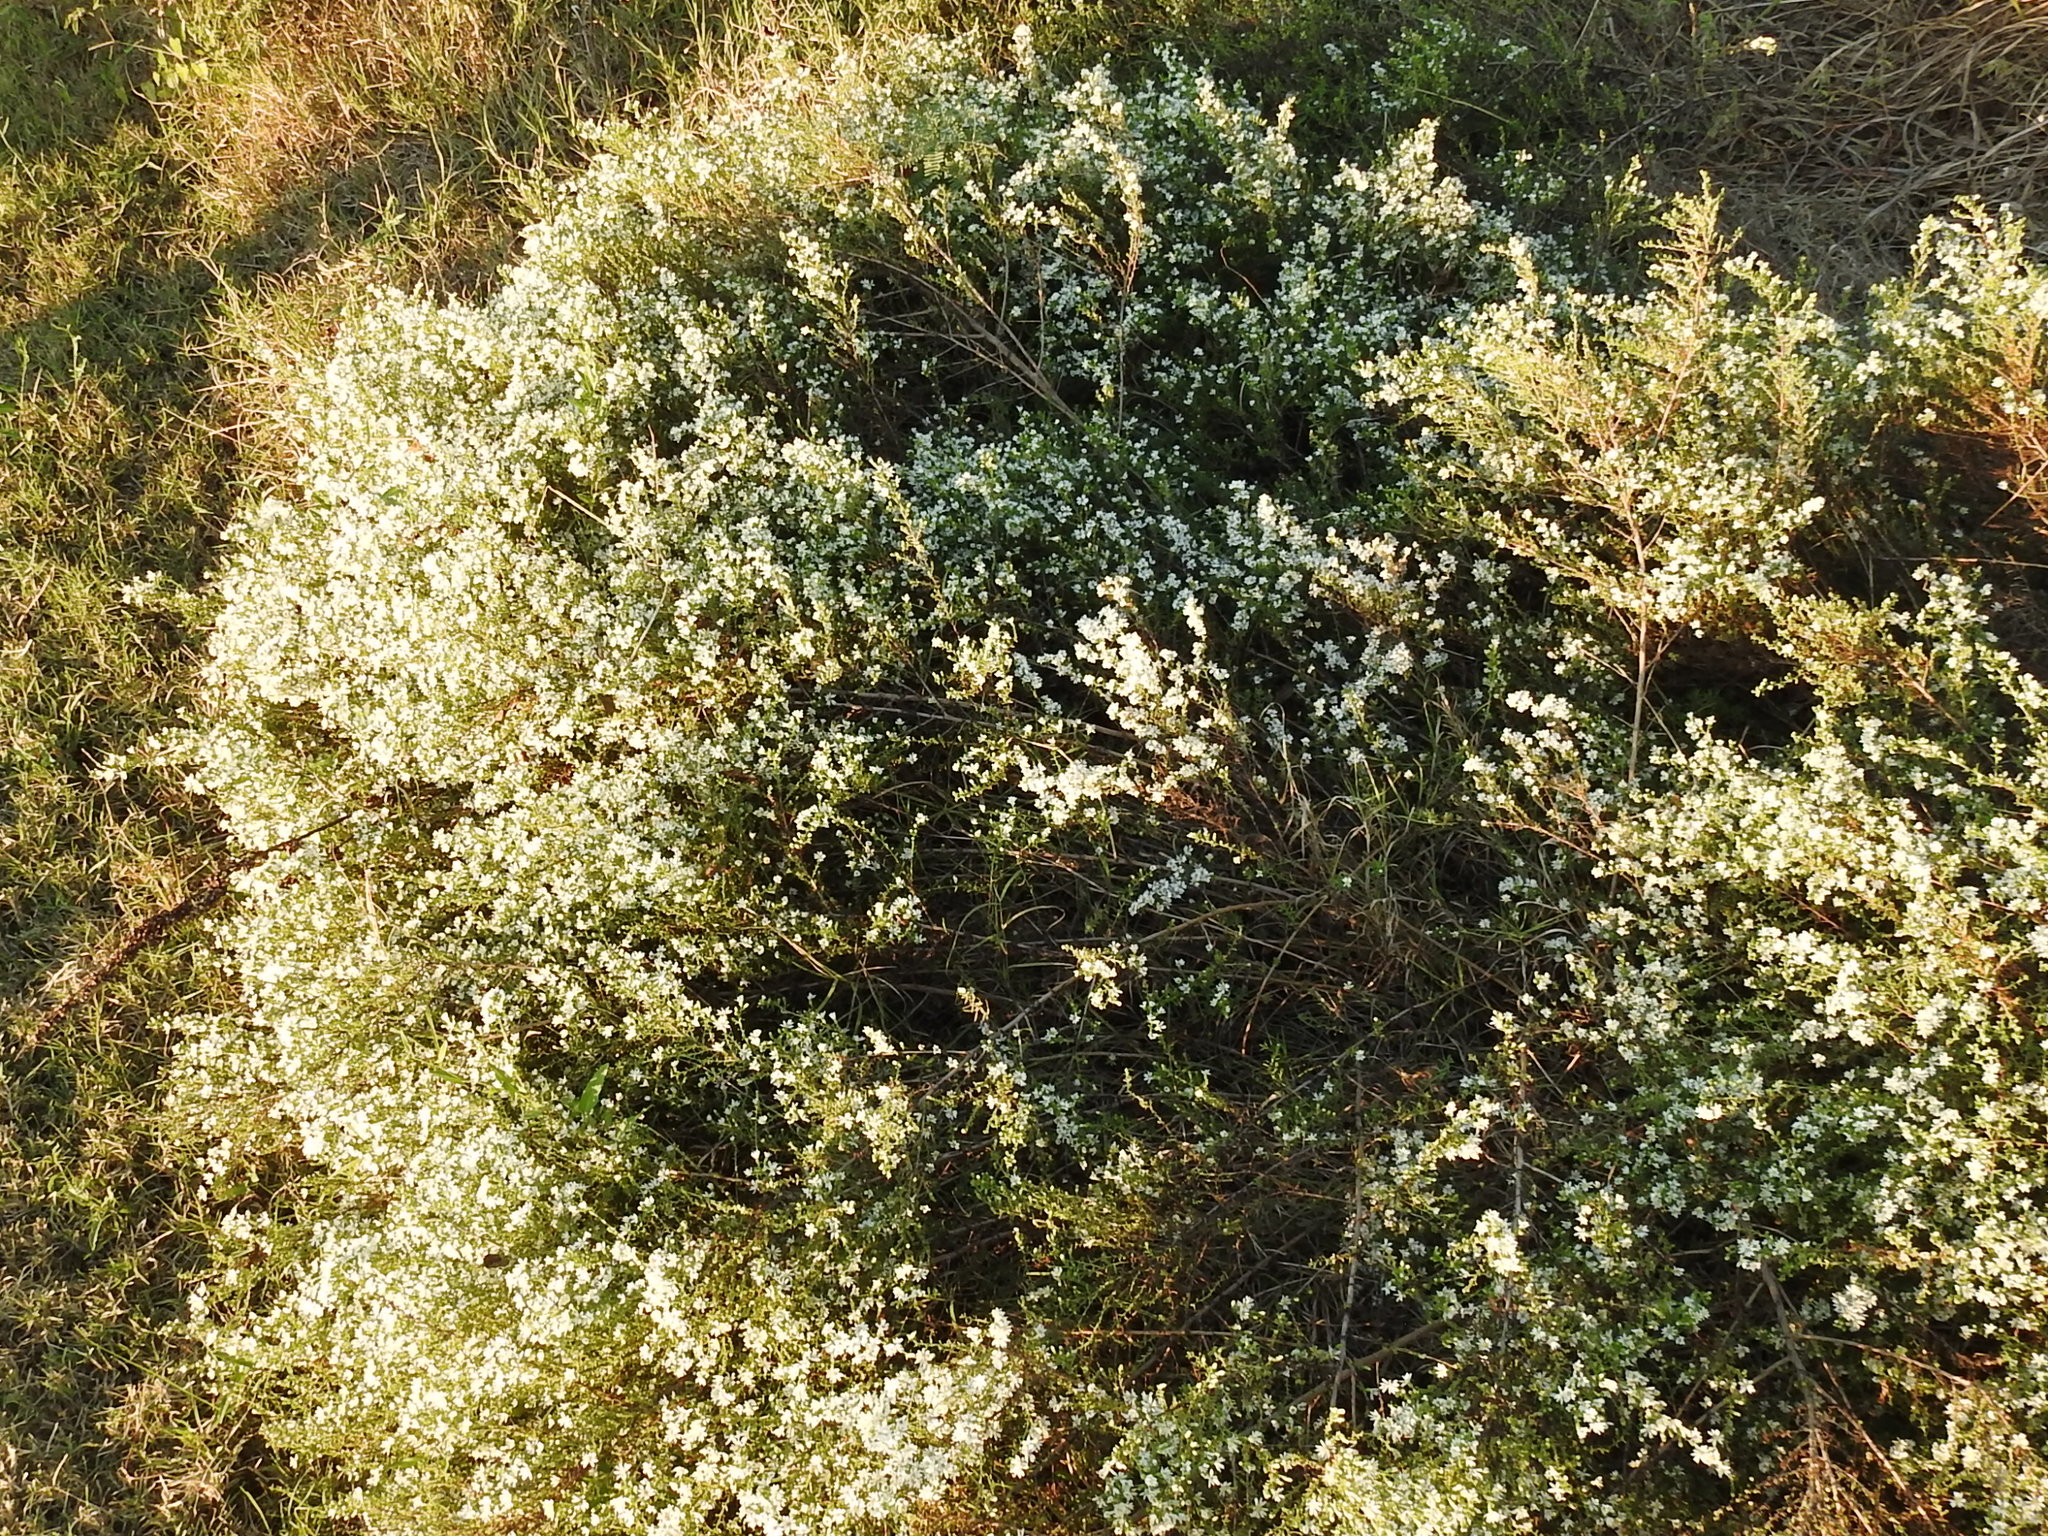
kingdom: Plantae
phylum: Tracheophyta
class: Magnoliopsida
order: Asterales
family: Asteraceae
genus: Symphyotrichum
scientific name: Symphyotrichum ericoides
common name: Heath aster
